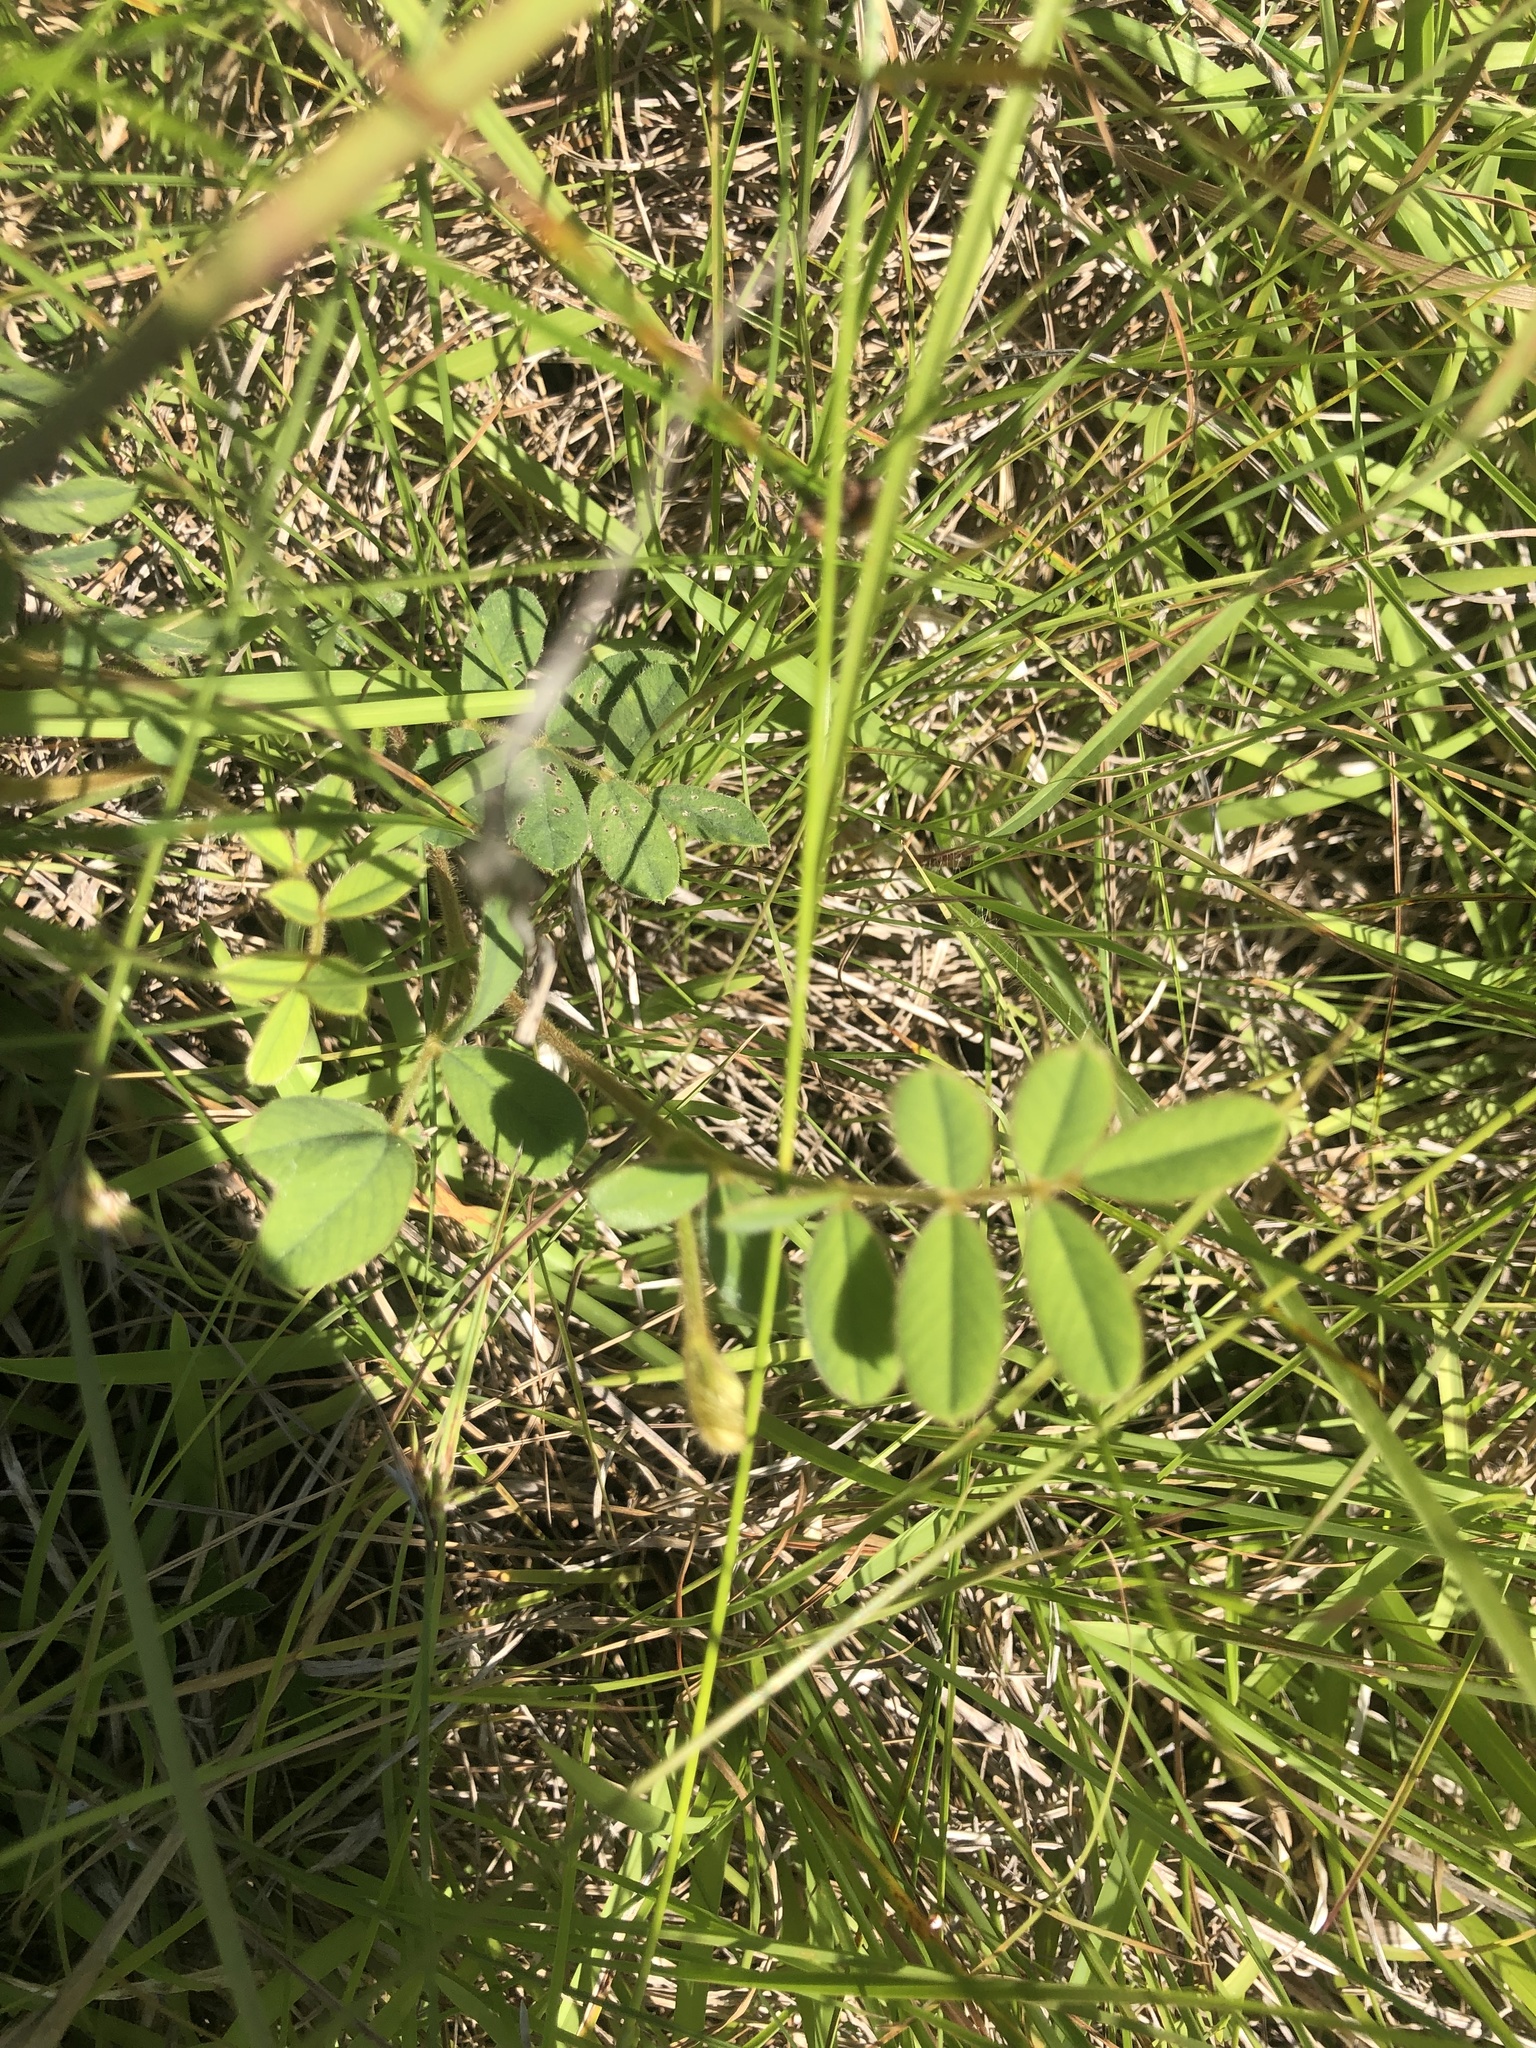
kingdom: Plantae
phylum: Tracheophyta
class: Magnoliopsida
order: Fabales
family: Fabaceae
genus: Tephrosia
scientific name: Tephrosia spicata
